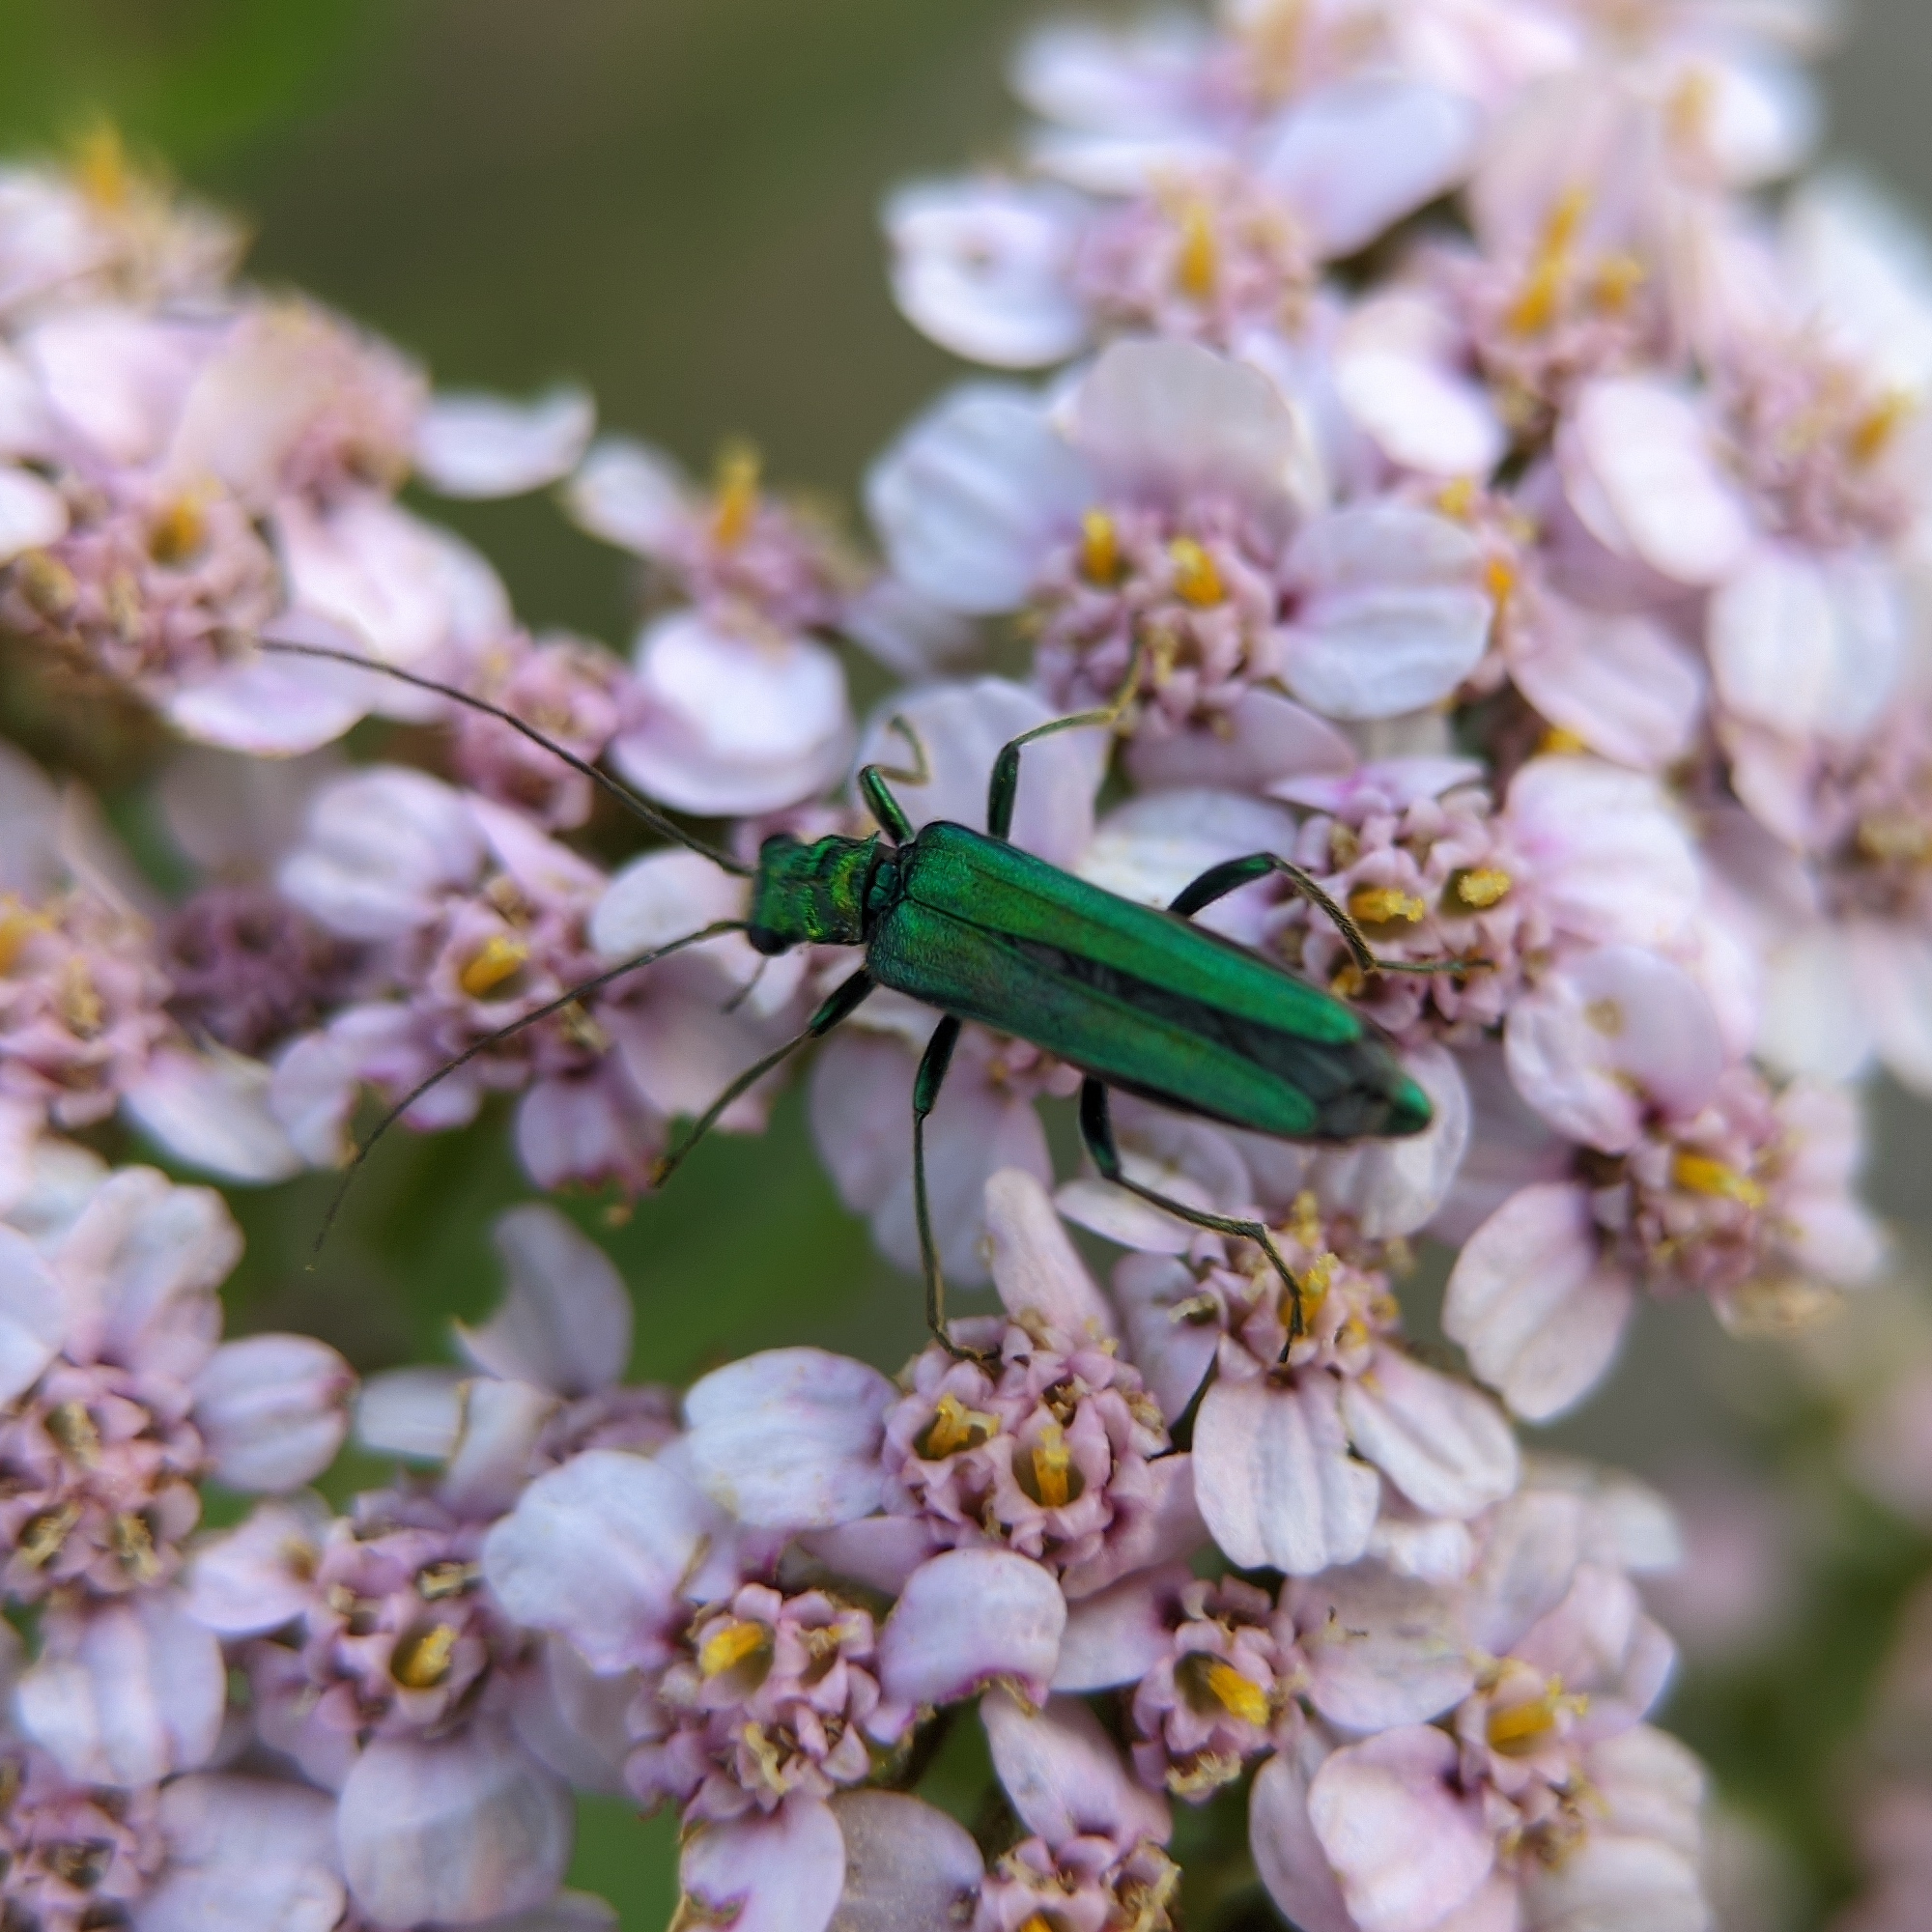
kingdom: Animalia
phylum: Arthropoda
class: Insecta
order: Coleoptera
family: Oedemeridae
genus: Oedemera
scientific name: Oedemera nobilis
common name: Swollen-thighed beetle
